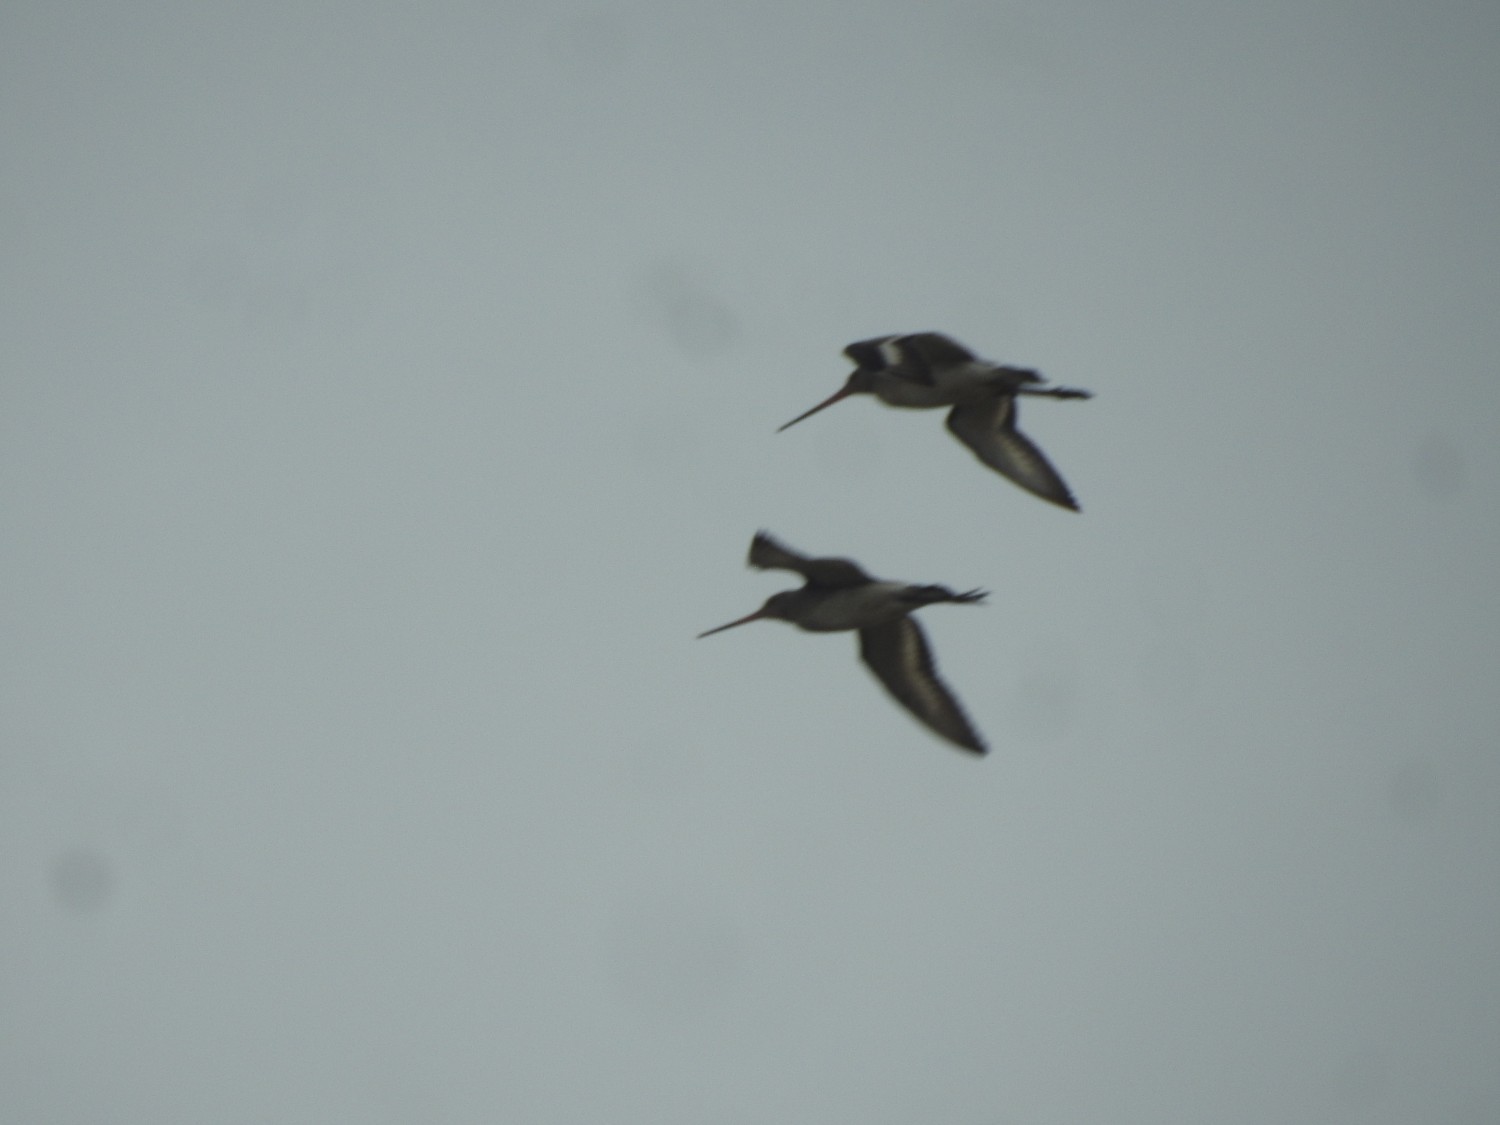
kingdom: Animalia
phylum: Chordata
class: Aves
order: Charadriiformes
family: Scolopacidae
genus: Limosa
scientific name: Limosa limosa
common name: Black-tailed godwit
